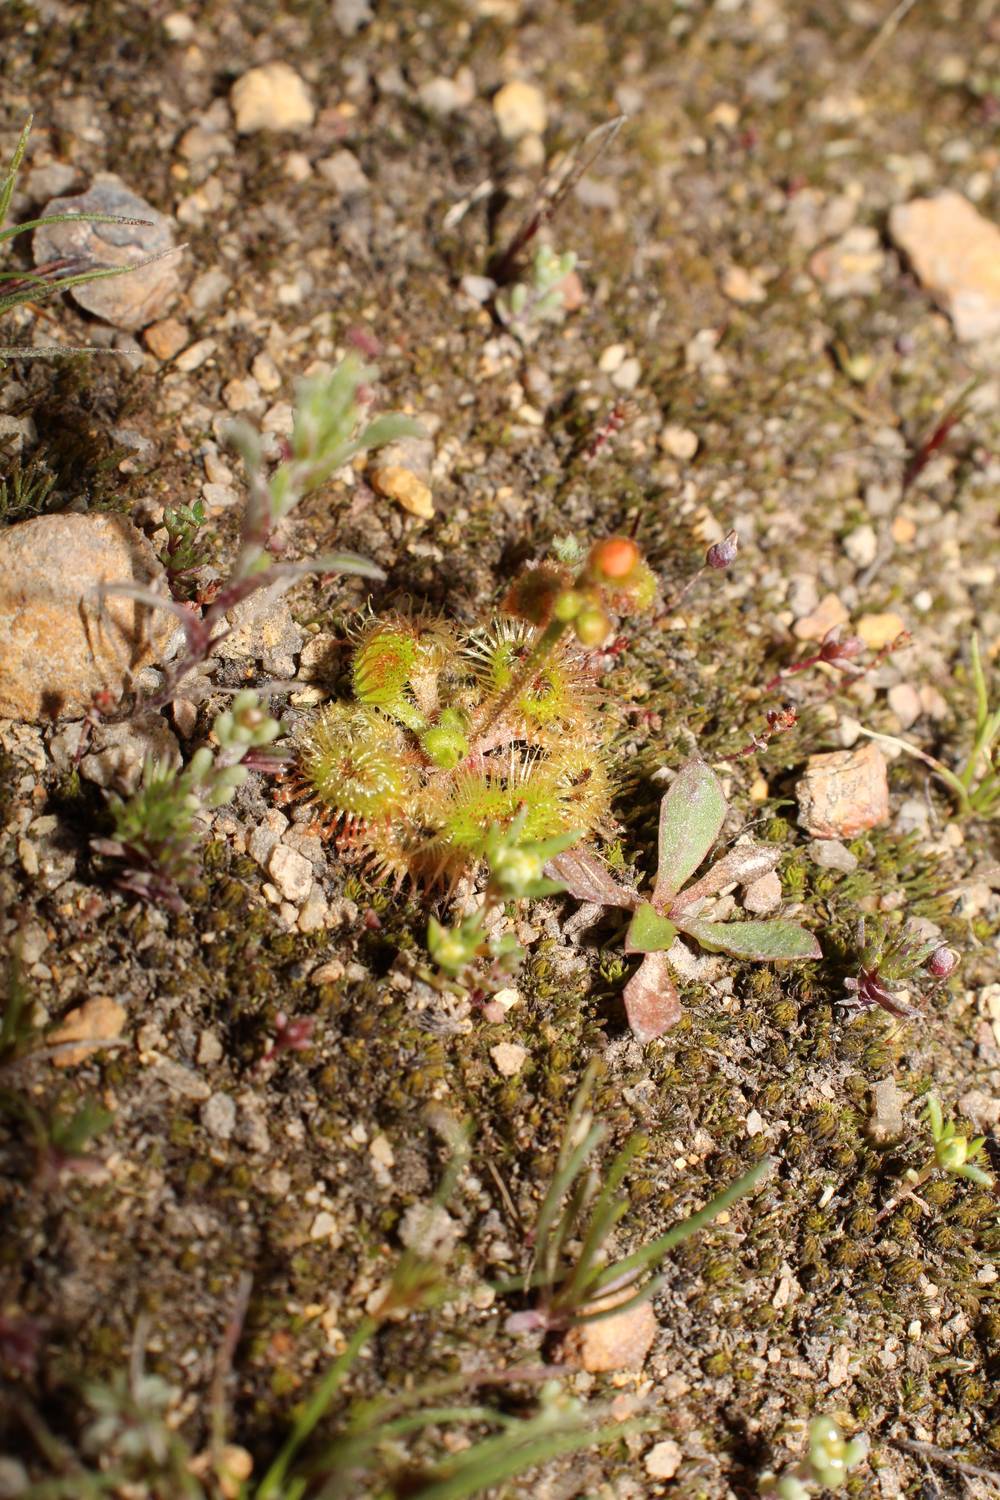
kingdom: Plantae
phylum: Tracheophyta
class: Magnoliopsida
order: Caryophyllales
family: Droseraceae
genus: Drosera
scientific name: Drosera glanduligera
